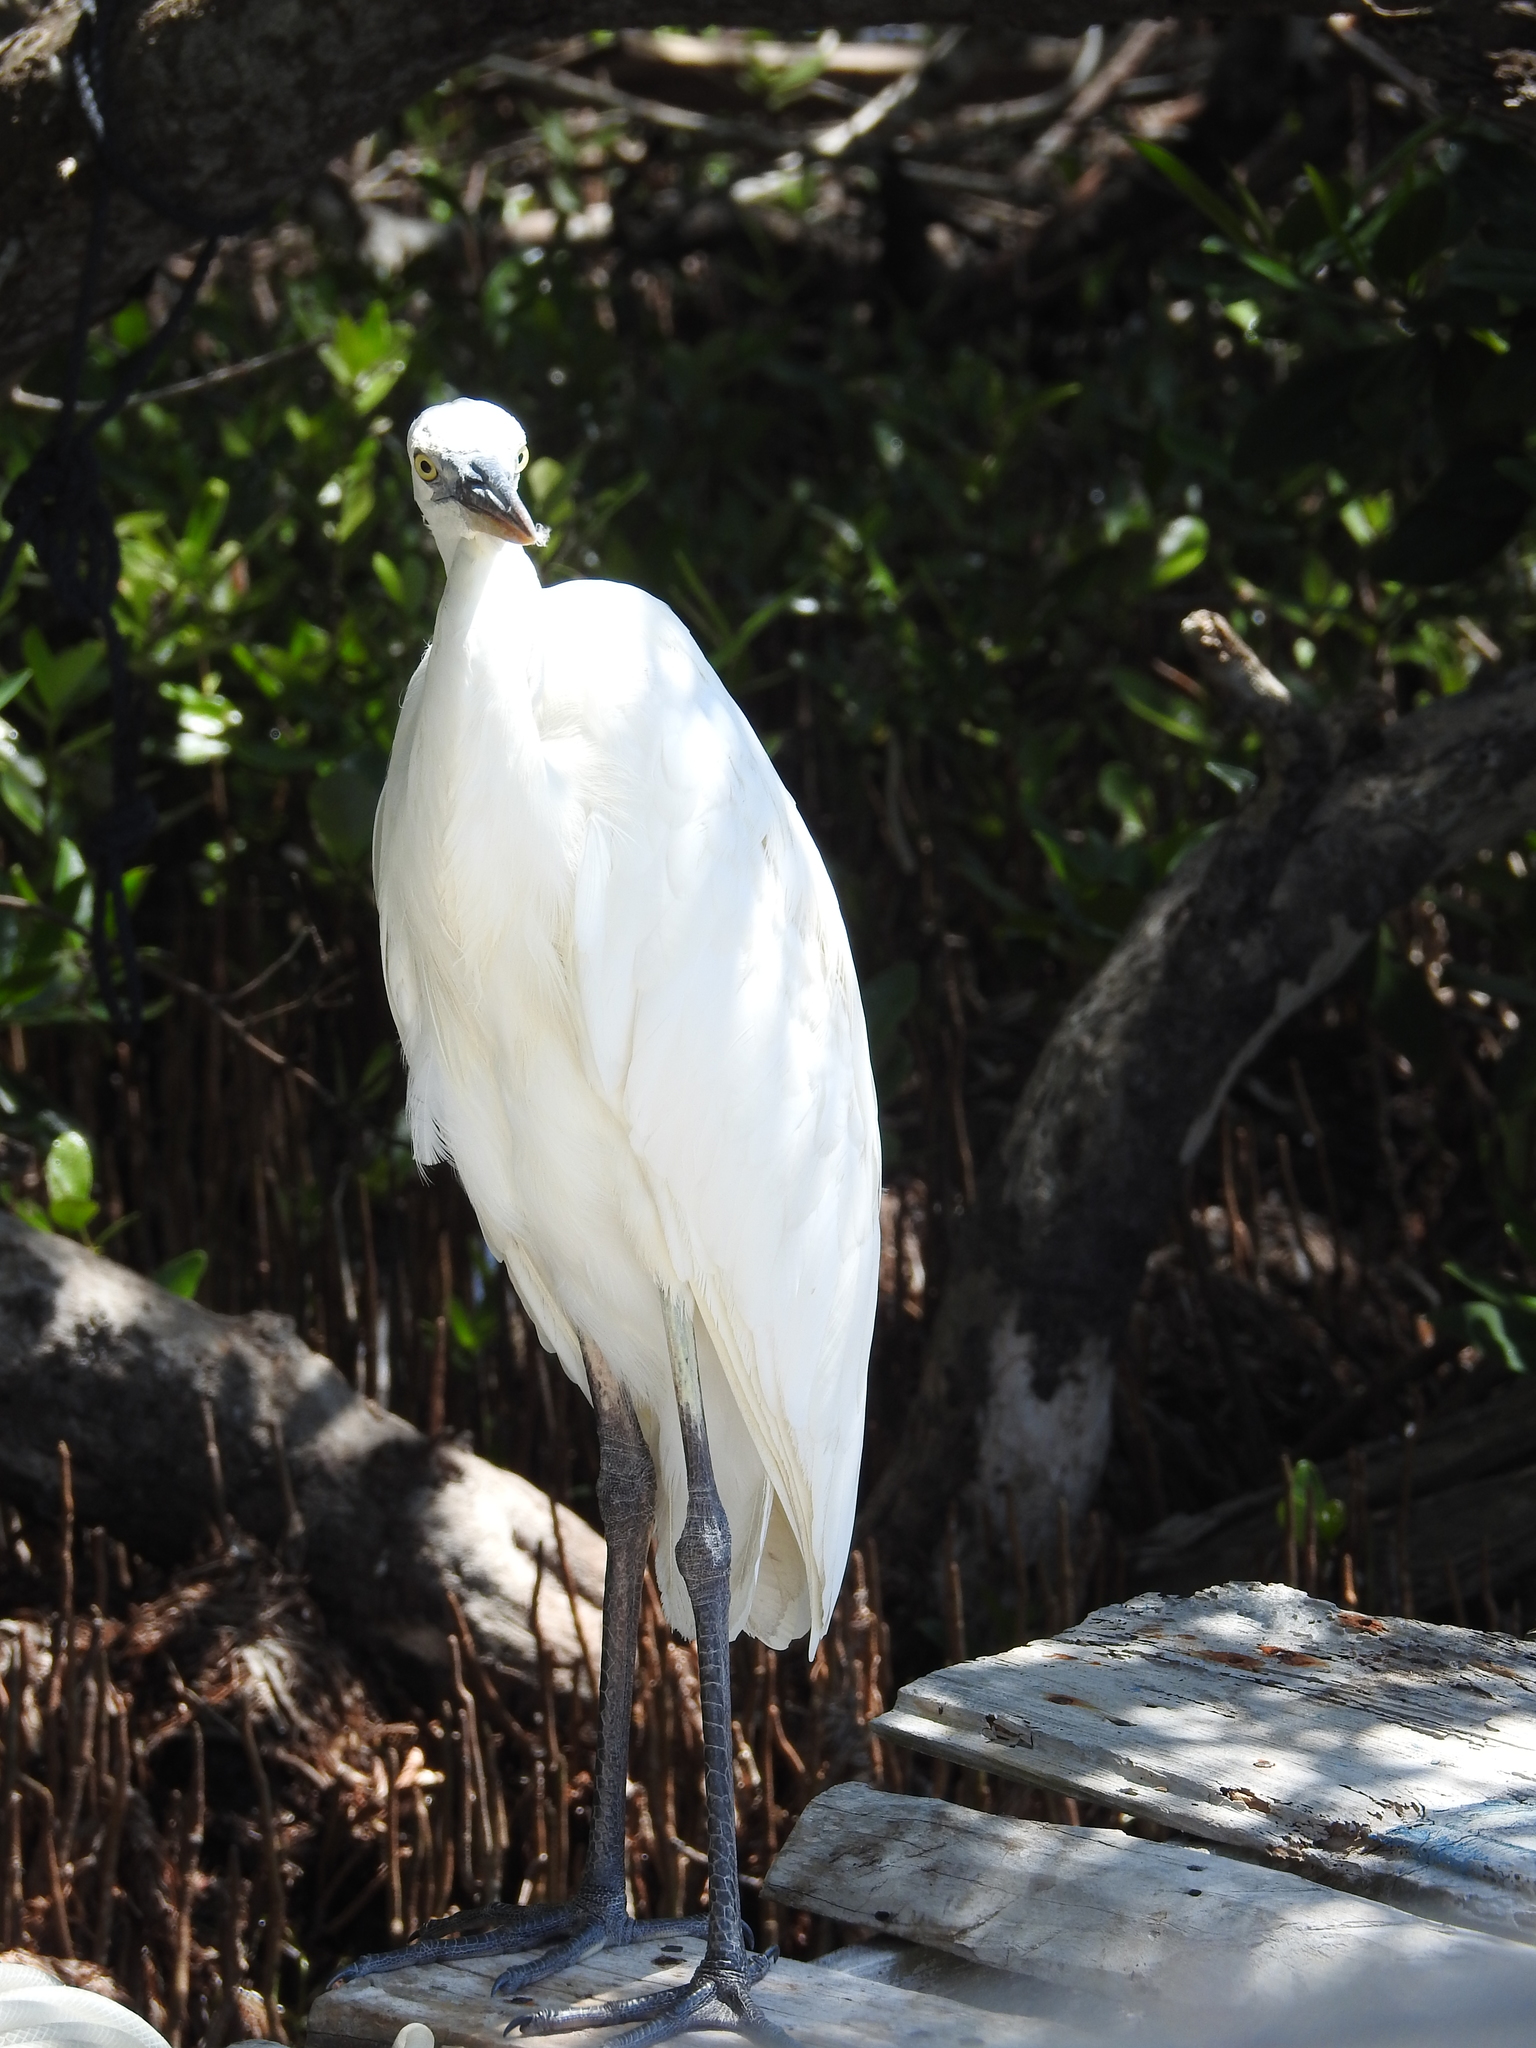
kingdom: Animalia
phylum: Chordata
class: Aves
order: Pelecaniformes
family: Ardeidae
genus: Ardea
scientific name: Ardea herodias
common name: Great blue heron
